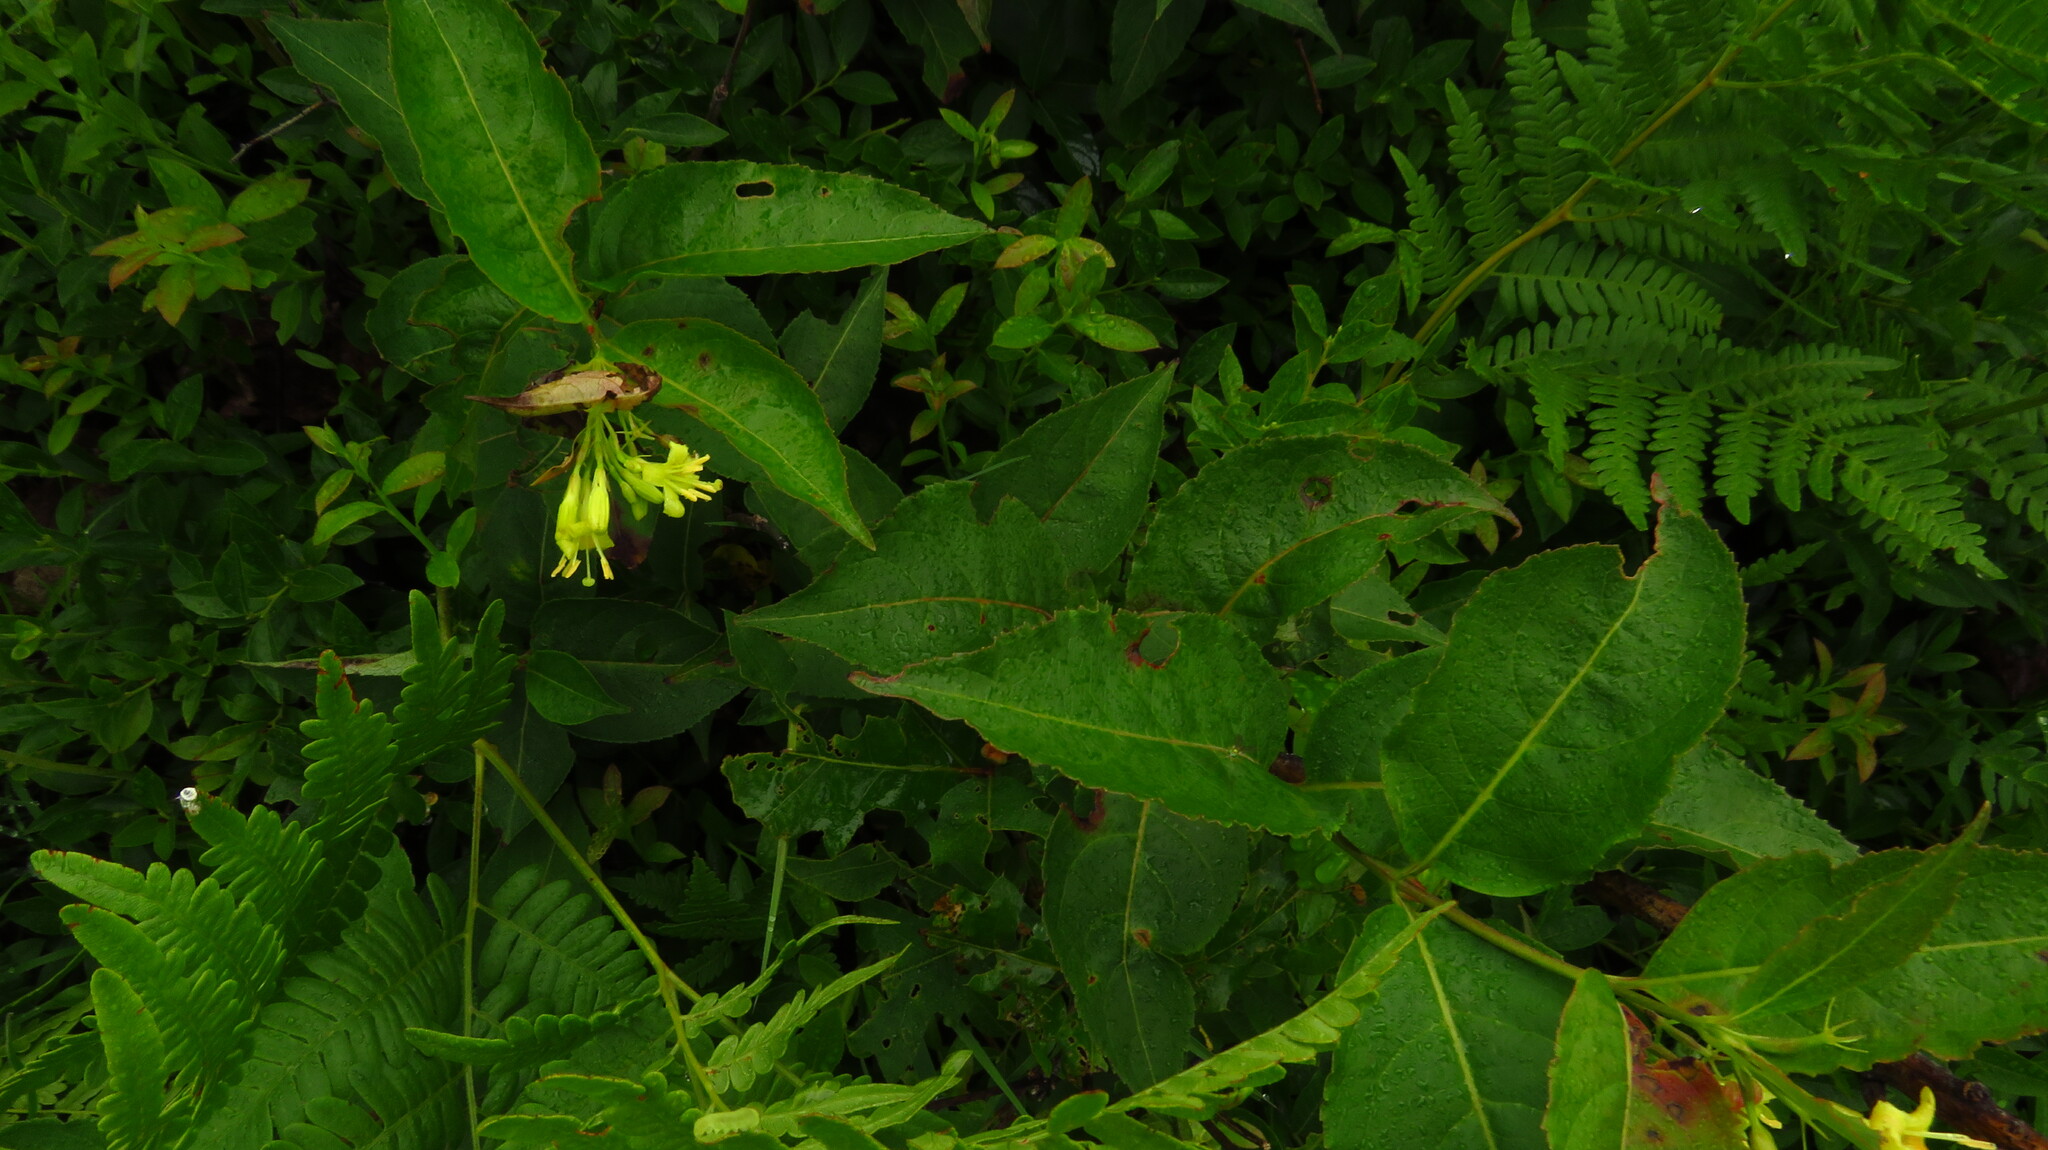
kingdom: Plantae
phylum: Tracheophyta
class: Magnoliopsida
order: Dipsacales
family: Caprifoliaceae
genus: Diervilla
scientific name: Diervilla lonicera
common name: Bush-honeysuckle
